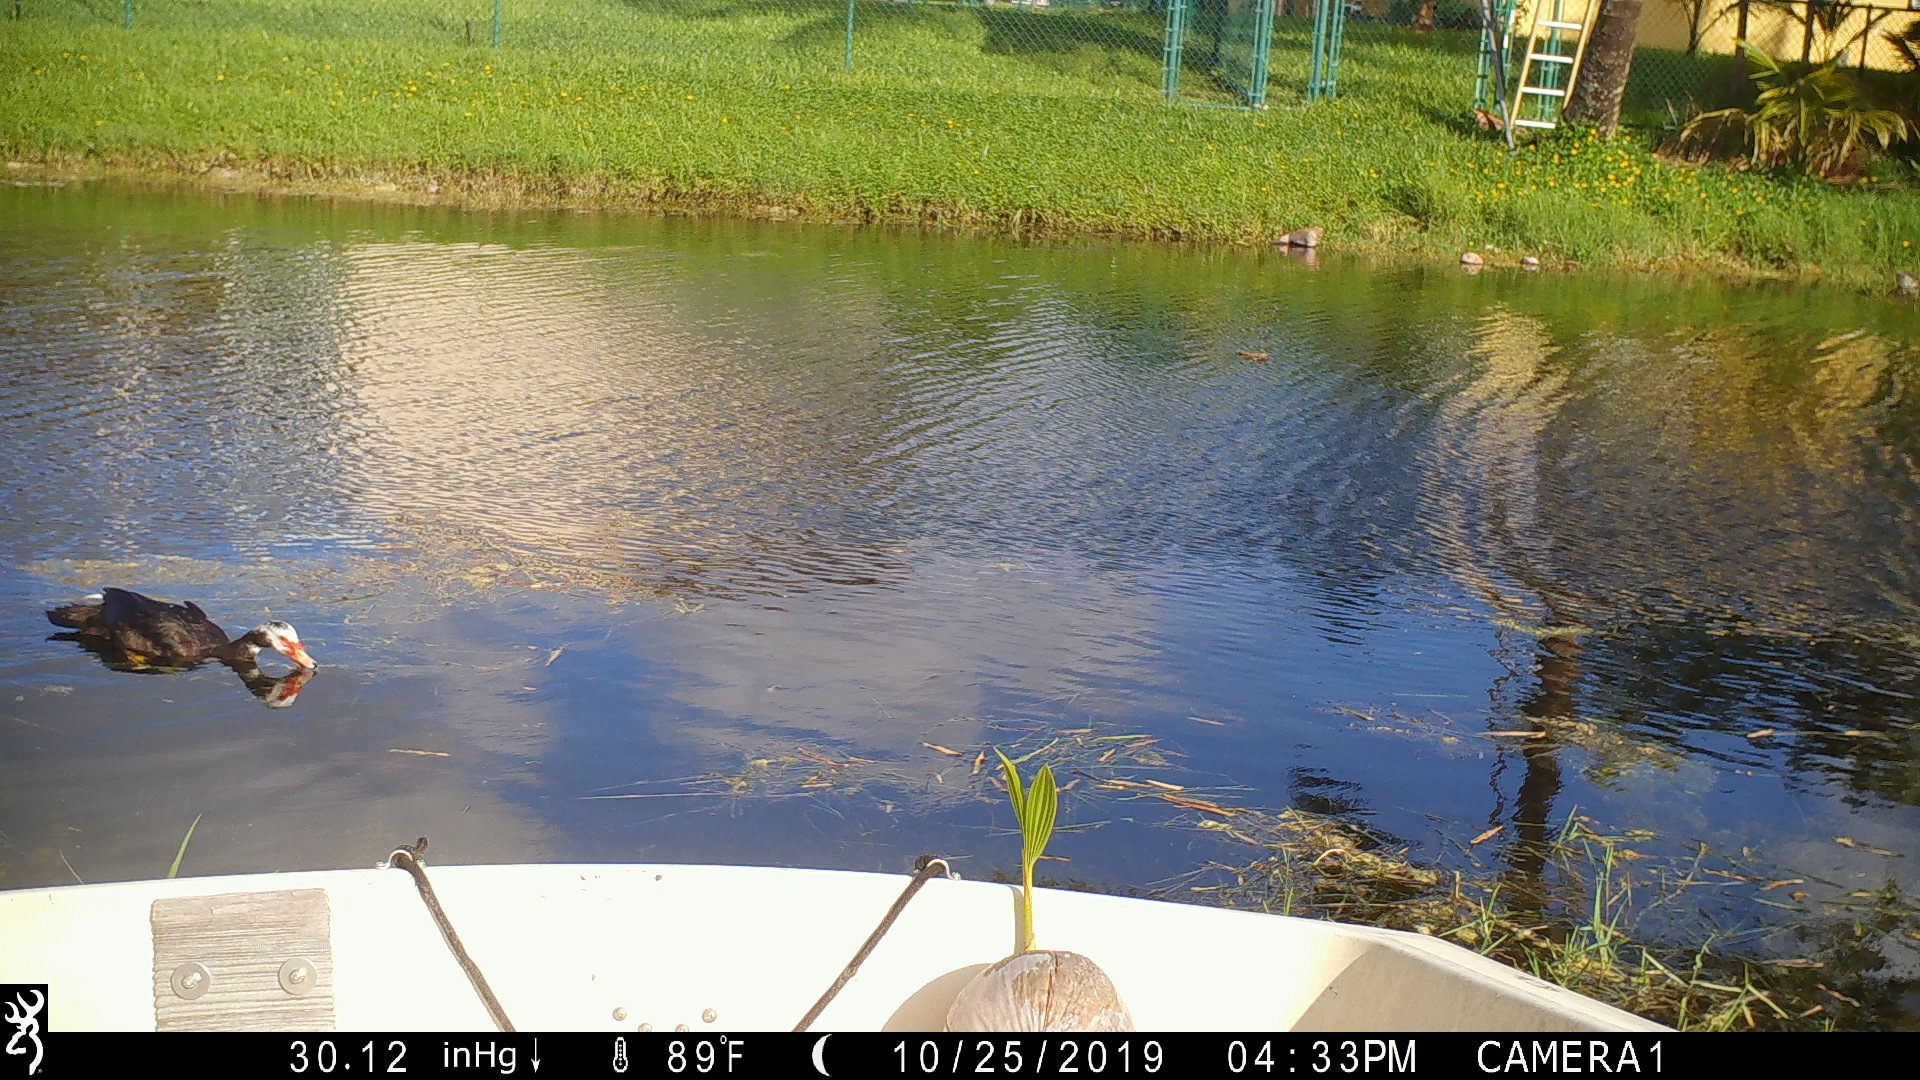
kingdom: Animalia
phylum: Chordata
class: Aves
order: Anseriformes
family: Anatidae
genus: Cairina
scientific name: Cairina moschata
